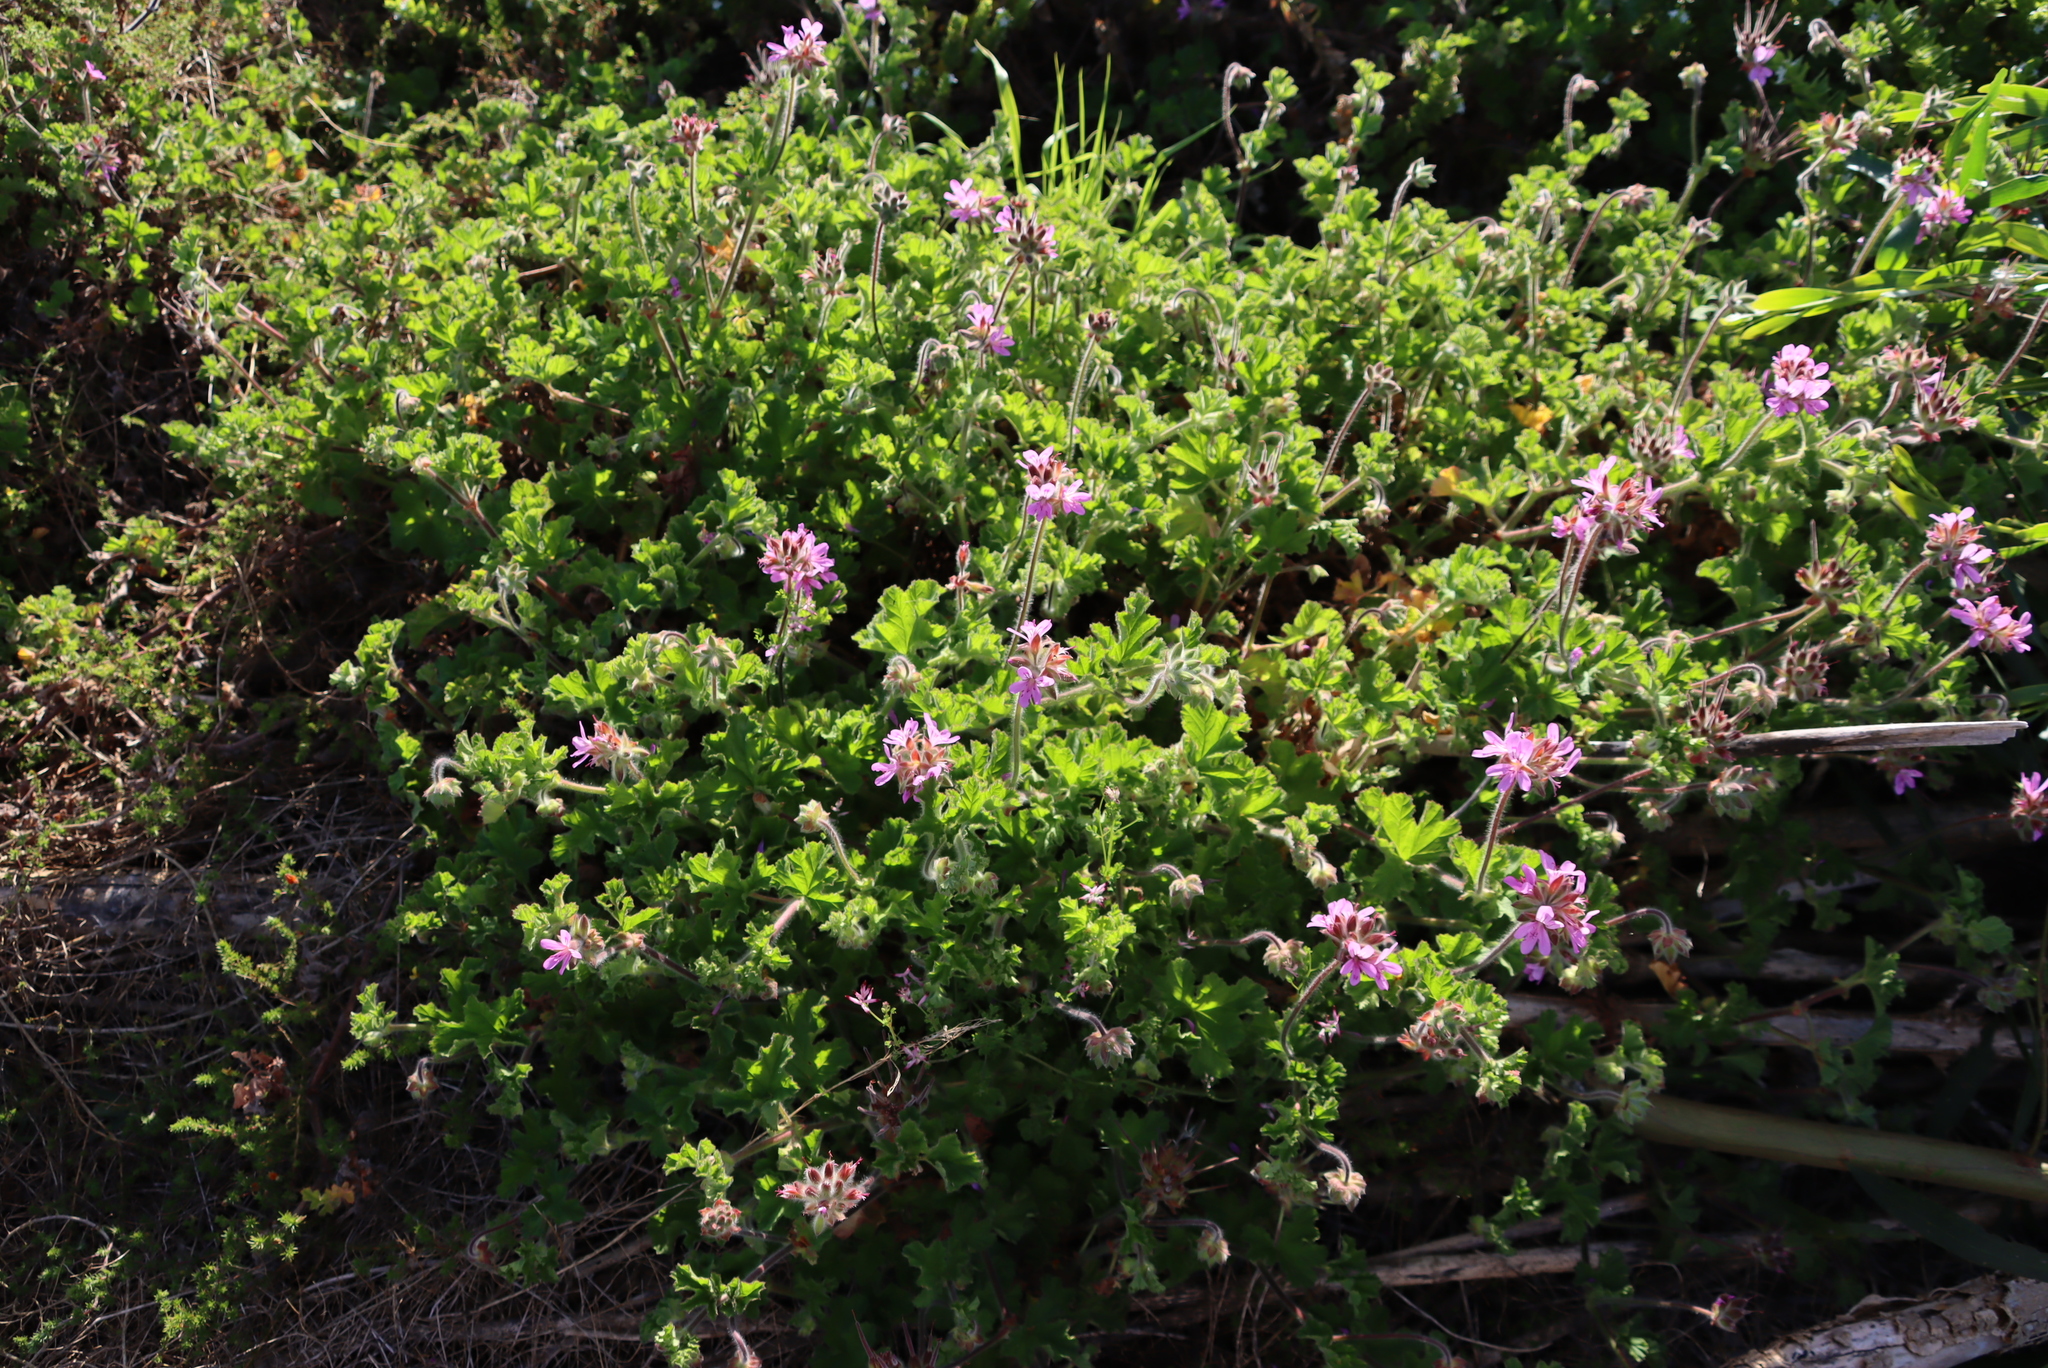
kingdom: Plantae
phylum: Tracheophyta
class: Magnoliopsida
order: Geraniales
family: Geraniaceae
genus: Pelargonium
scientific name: Pelargonium capitatum
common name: Rose scented geranium
